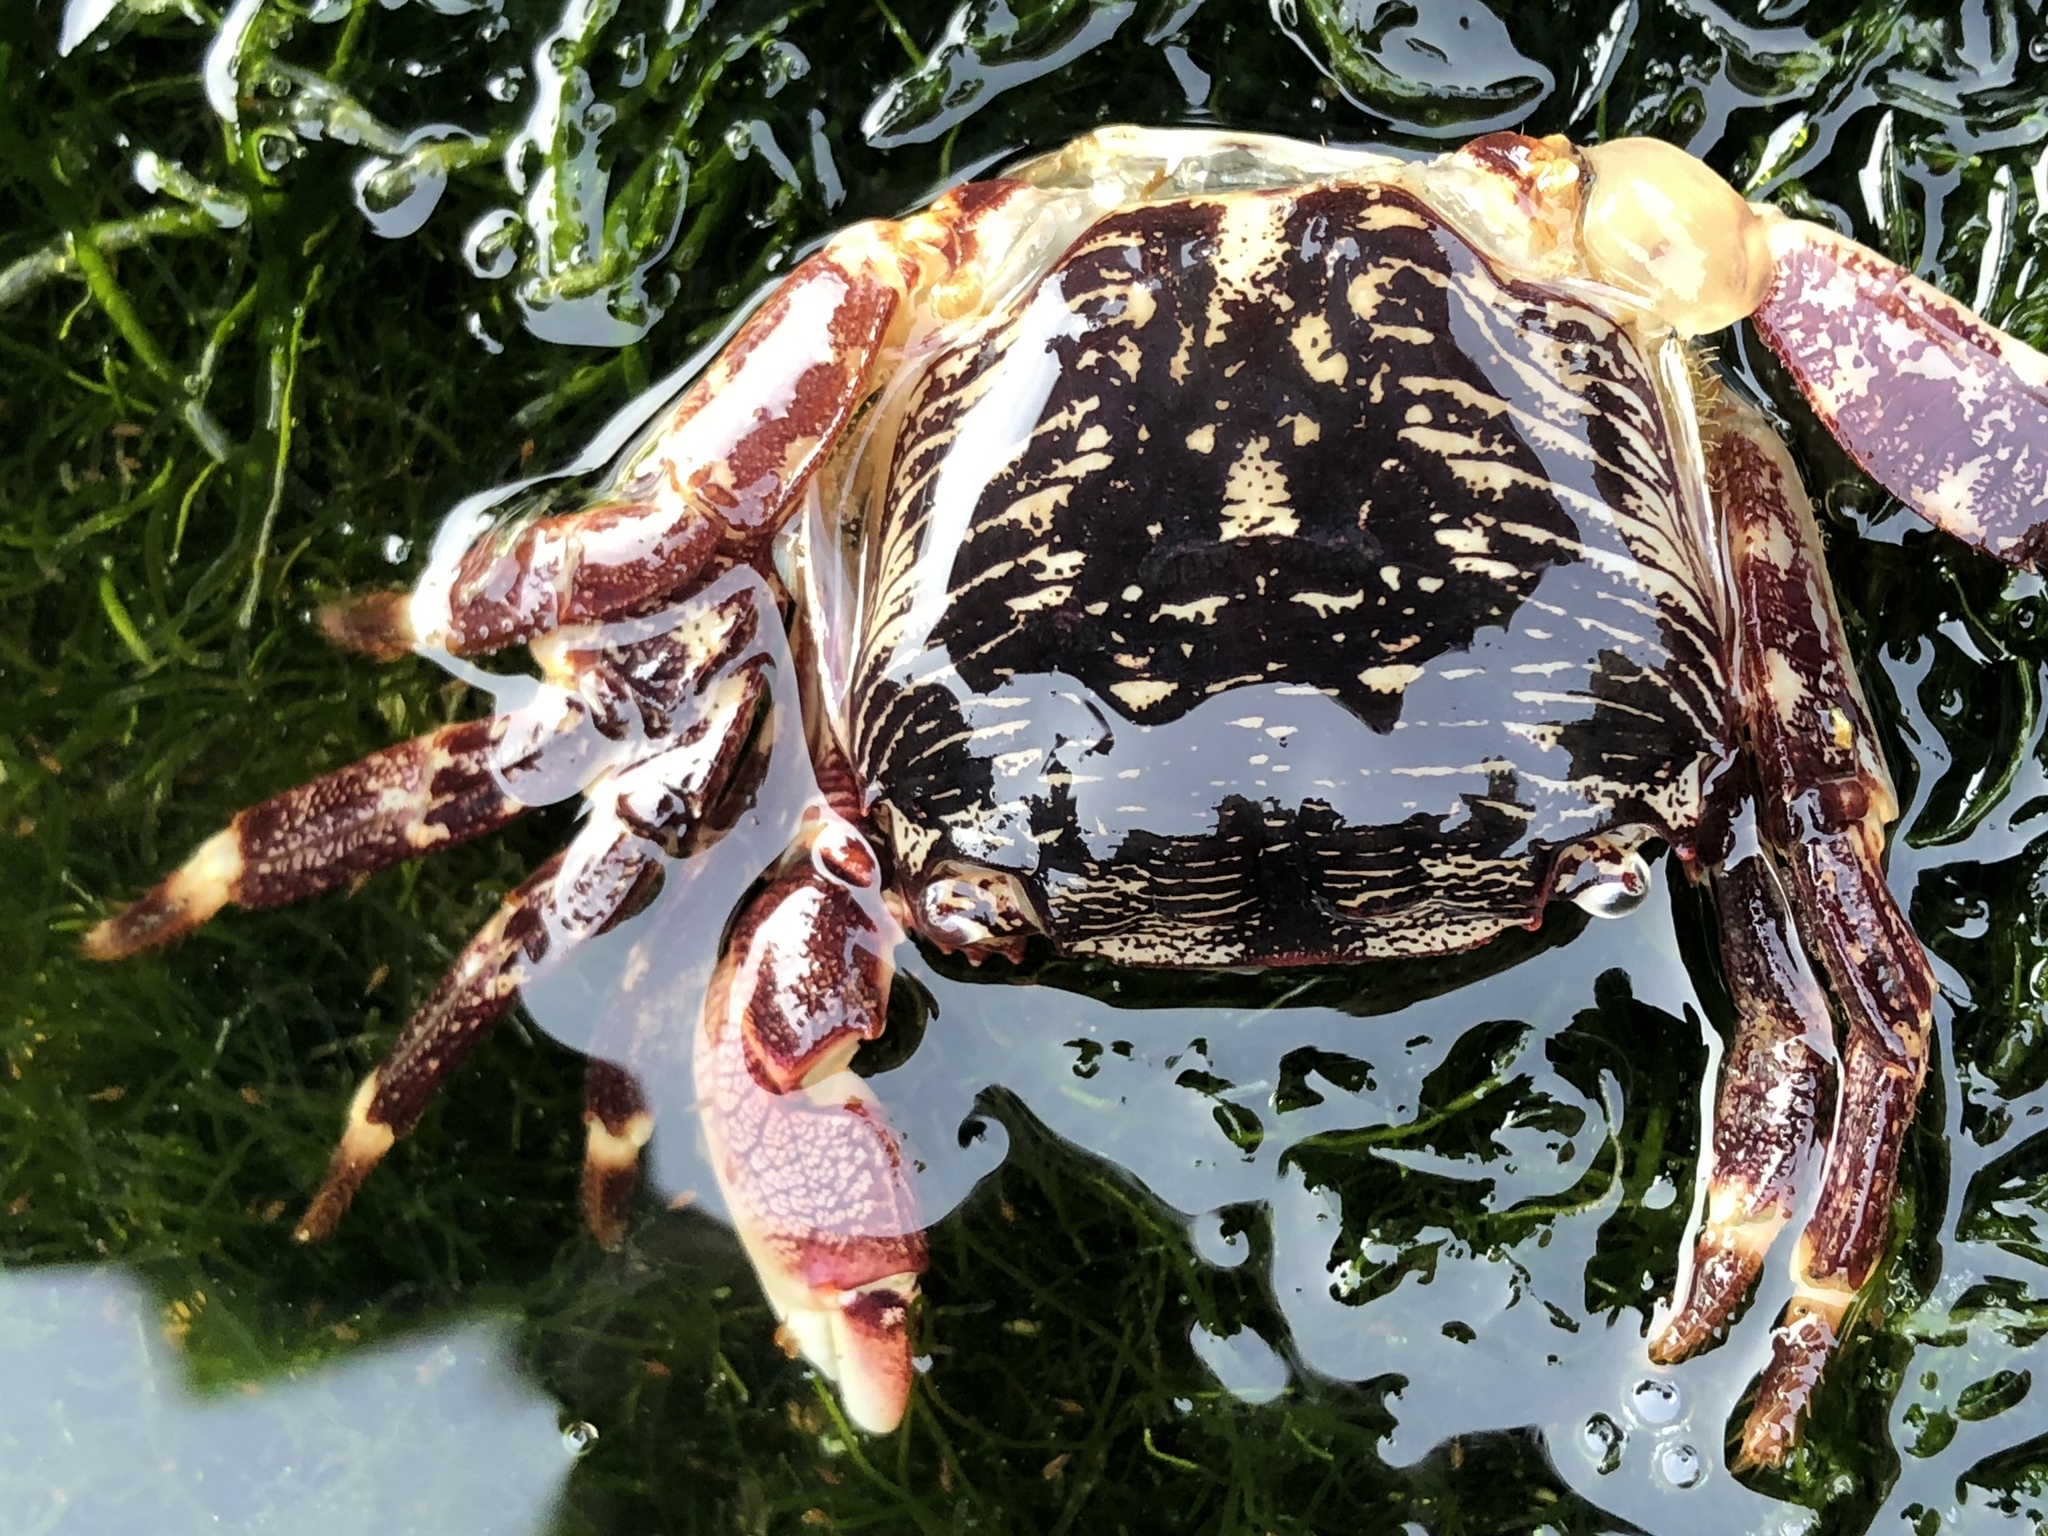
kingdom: Animalia
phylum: Arthropoda
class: Malacostraca
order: Decapoda
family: Grapsidae
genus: Pachygrapsus
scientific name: Pachygrapsus crassipes
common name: Striped shore crab
